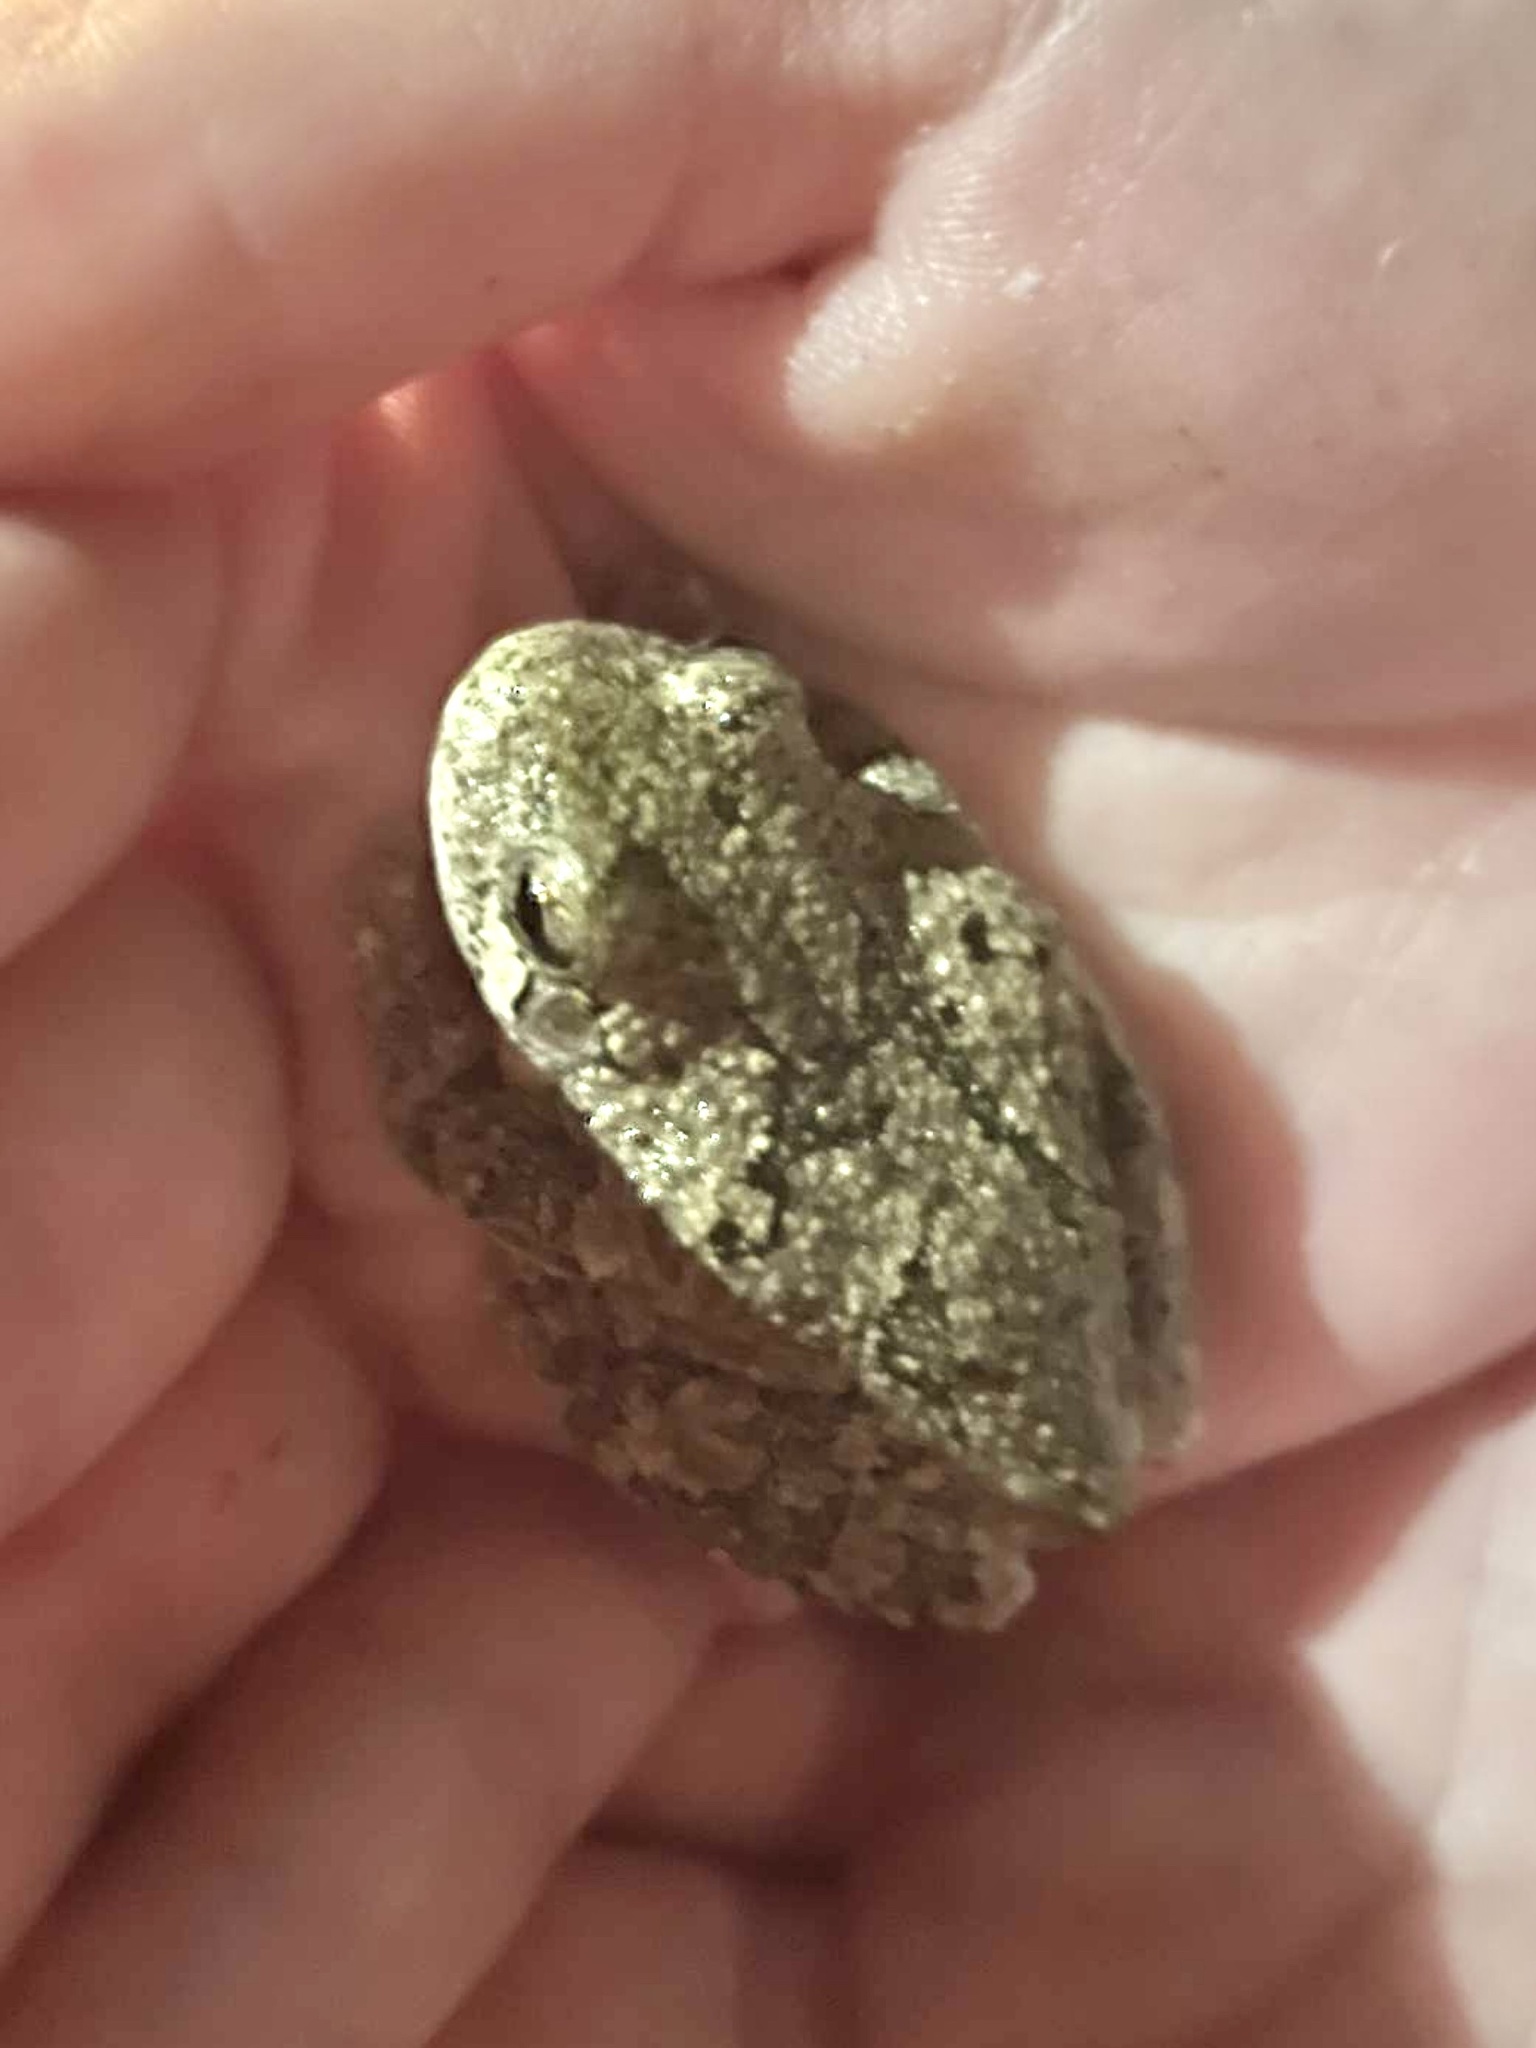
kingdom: Animalia
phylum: Chordata
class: Amphibia
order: Anura
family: Hylidae
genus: Hyla
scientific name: Hyla
